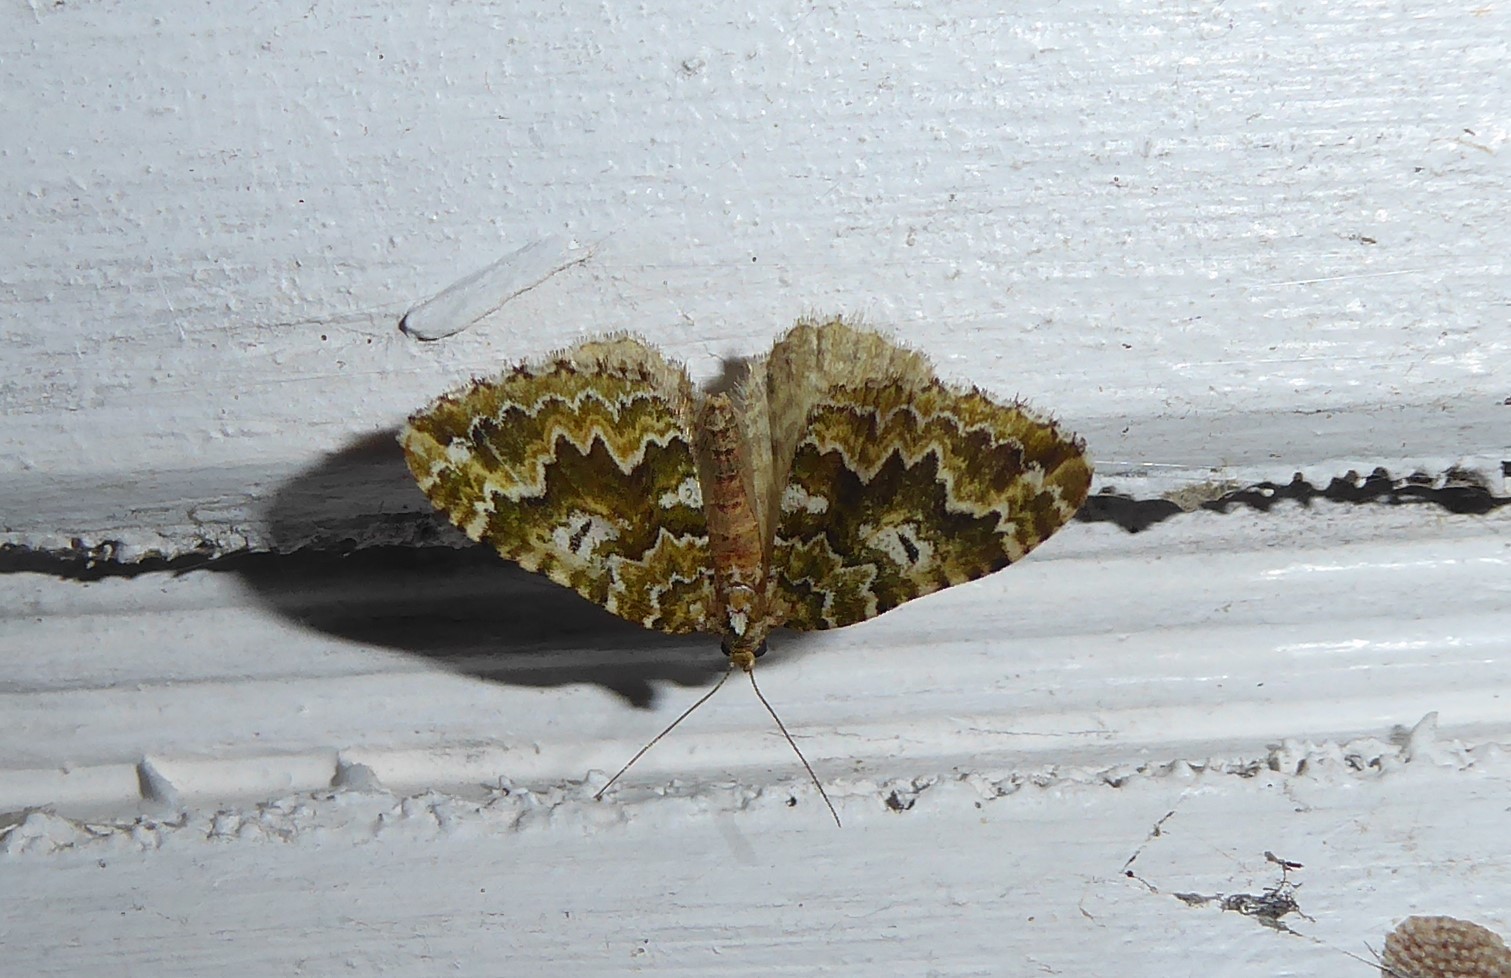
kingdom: Animalia
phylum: Arthropoda
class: Insecta
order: Lepidoptera
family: Geometridae
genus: Asaphodes
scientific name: Asaphodes beata
